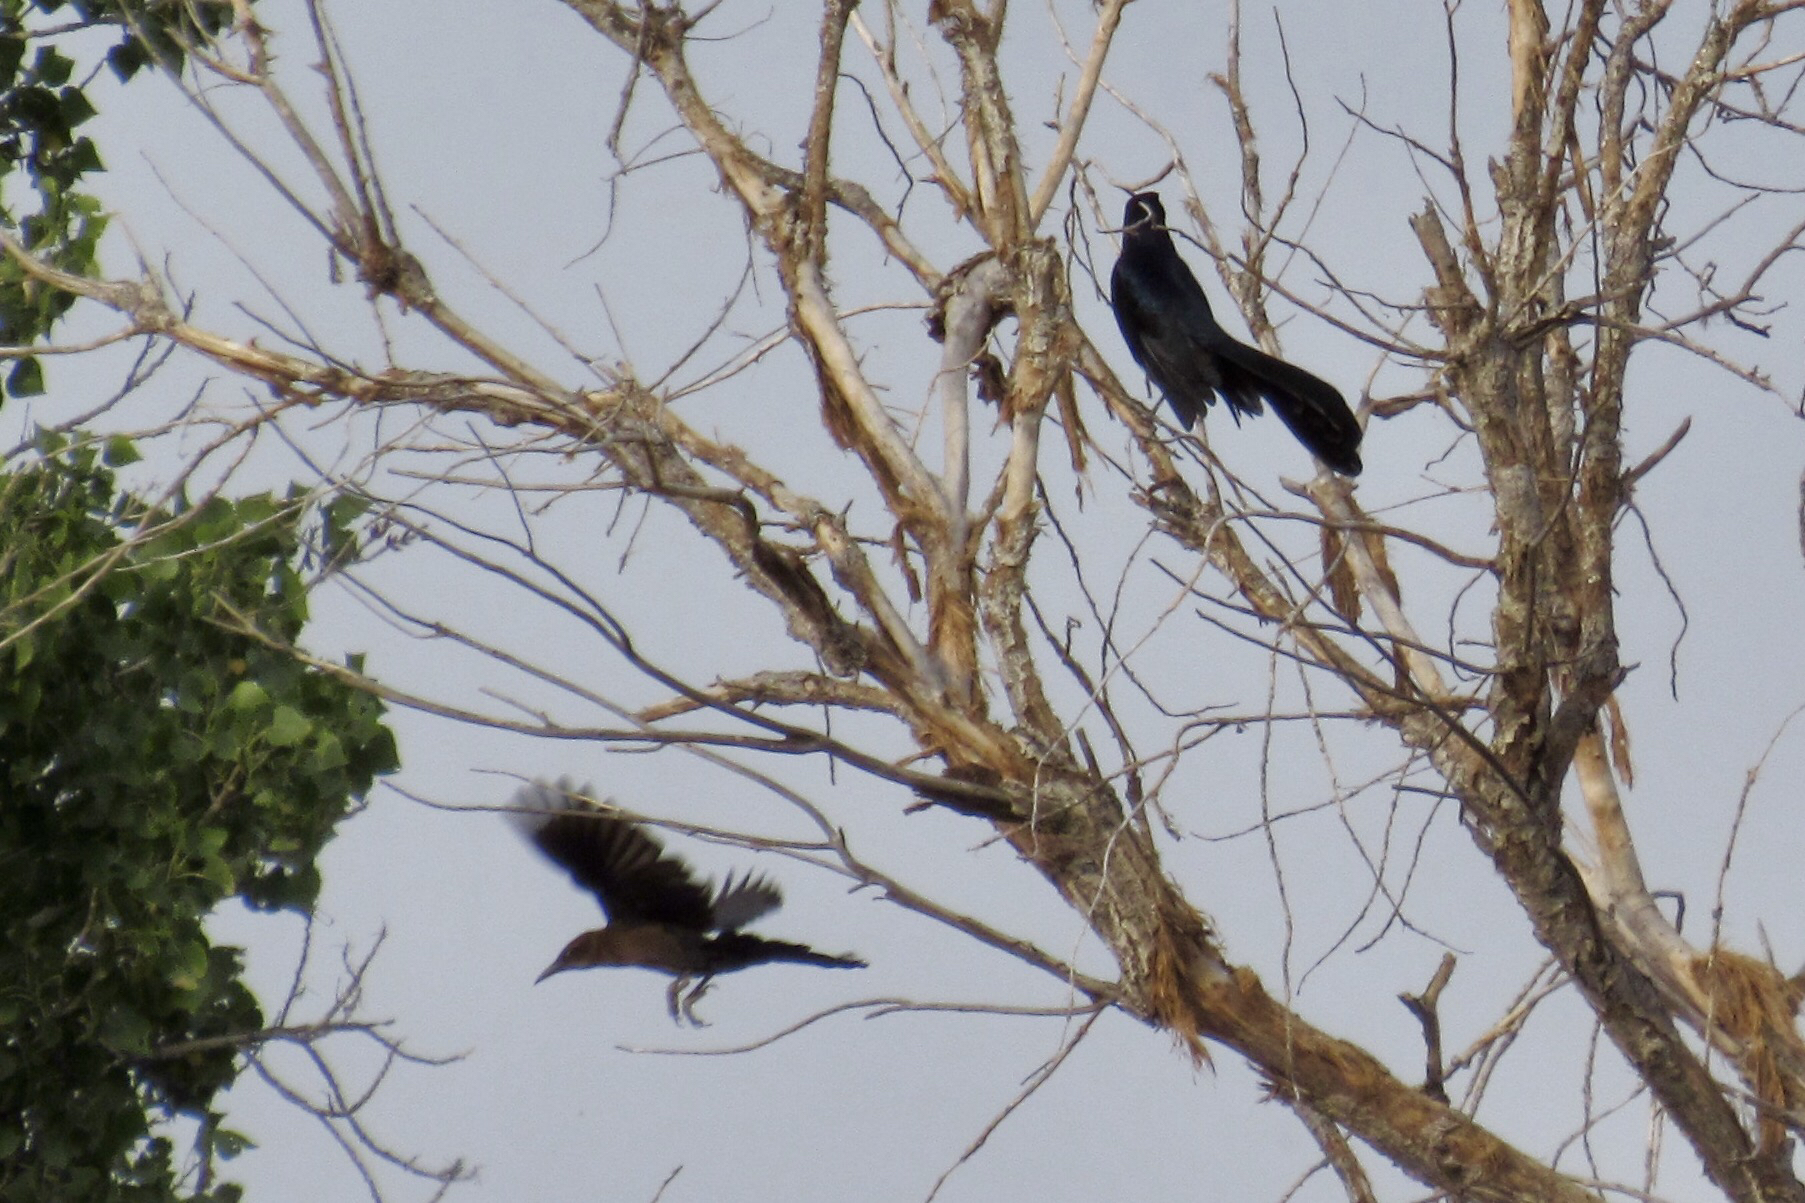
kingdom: Animalia
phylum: Chordata
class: Aves
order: Passeriformes
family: Icteridae
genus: Quiscalus
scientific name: Quiscalus mexicanus
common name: Great-tailed grackle
